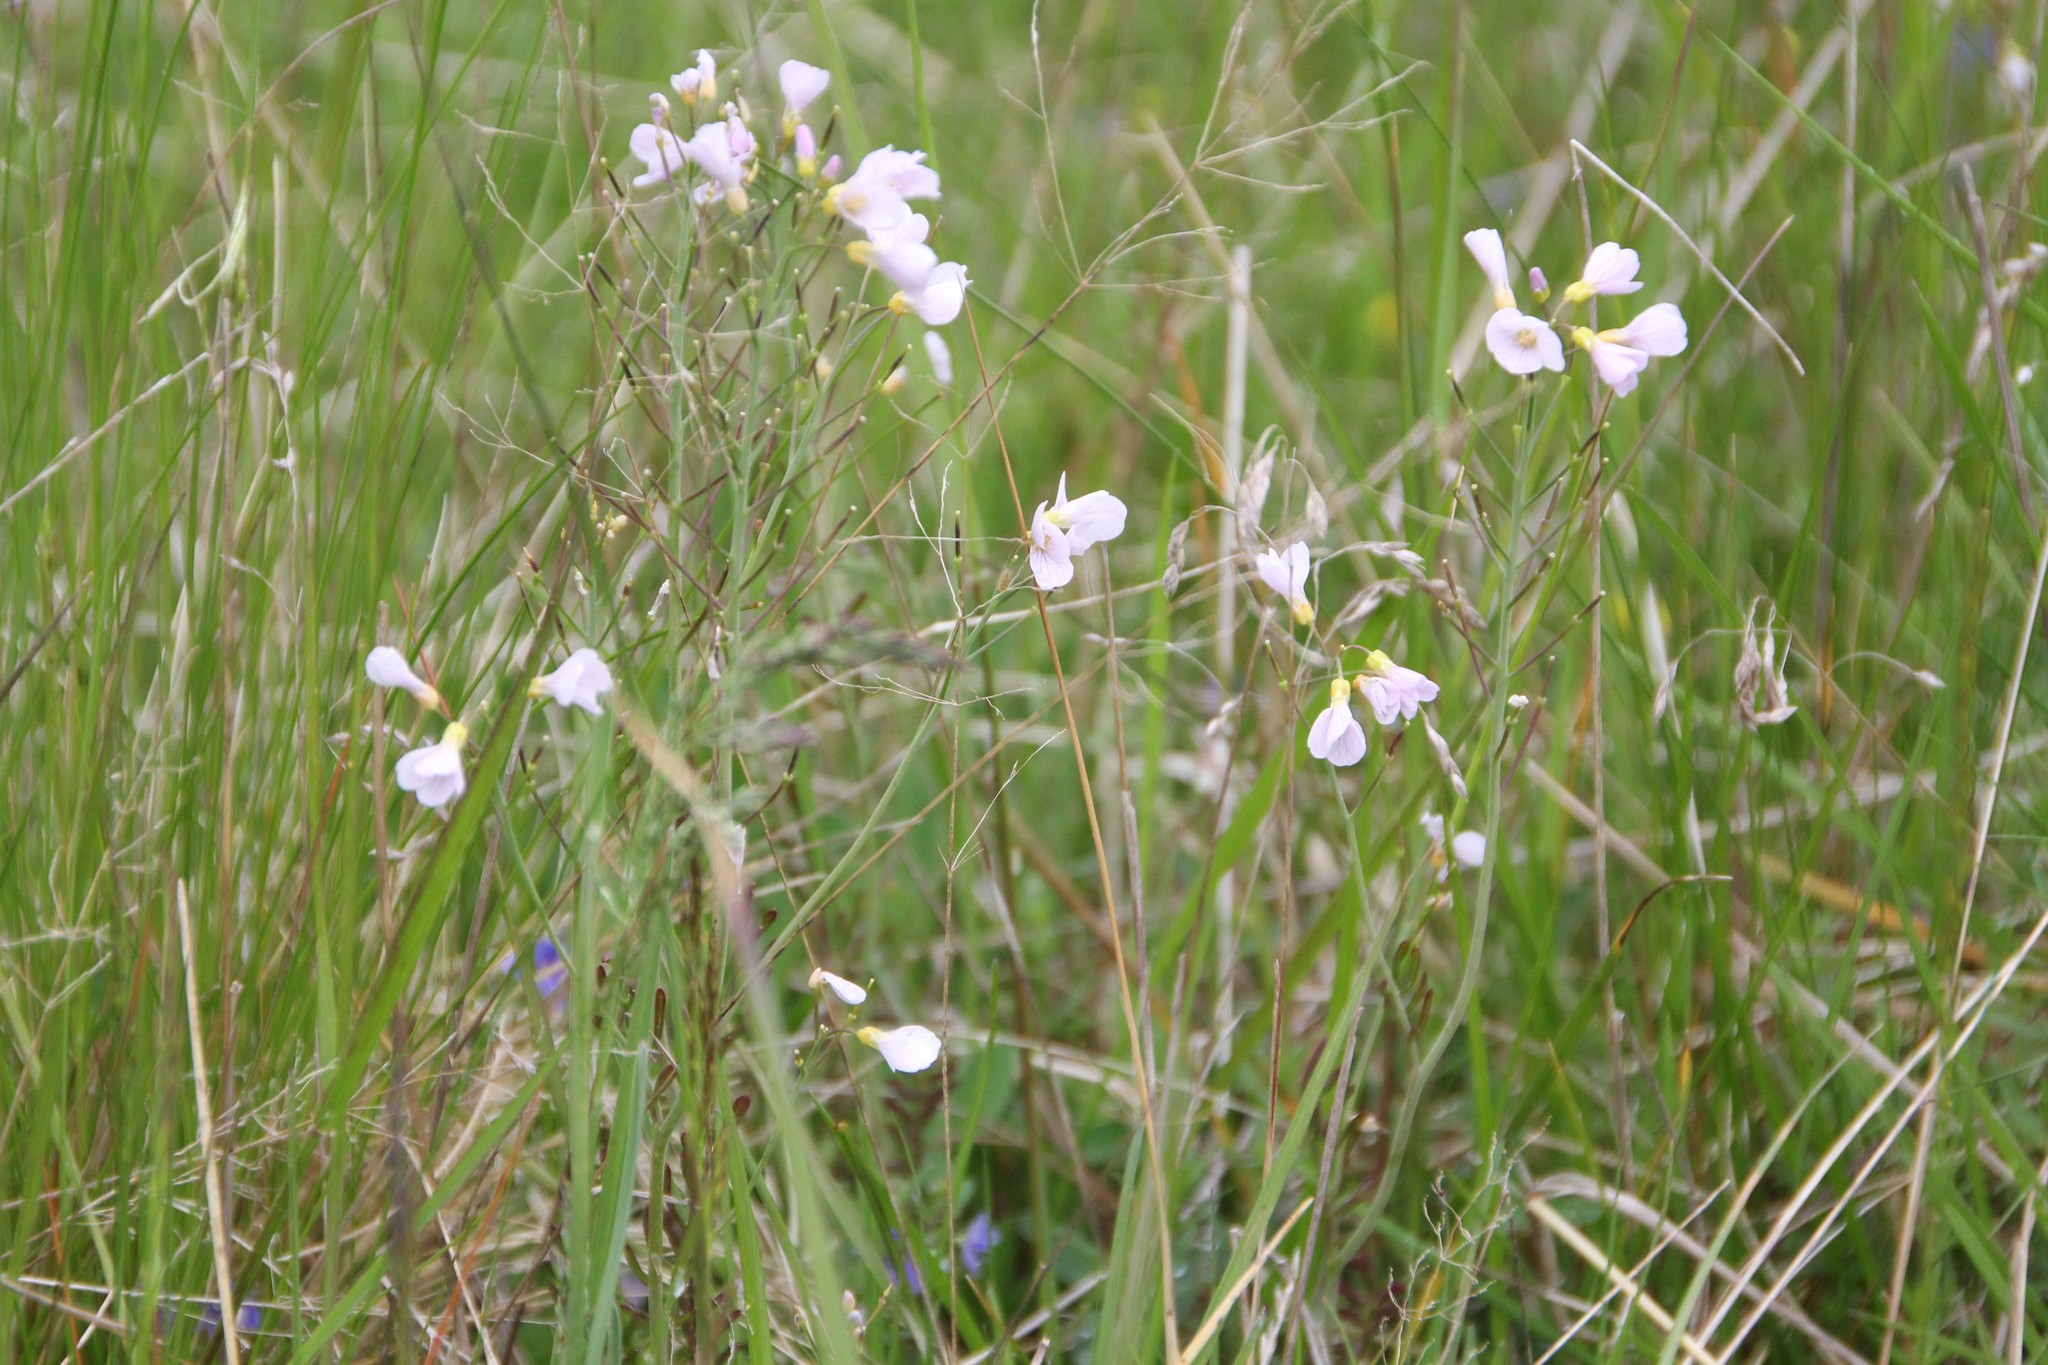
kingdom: Plantae
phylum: Tracheophyta
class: Magnoliopsida
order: Brassicales
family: Brassicaceae
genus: Cardamine
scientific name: Cardamine pratensis
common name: Cuckoo flower
